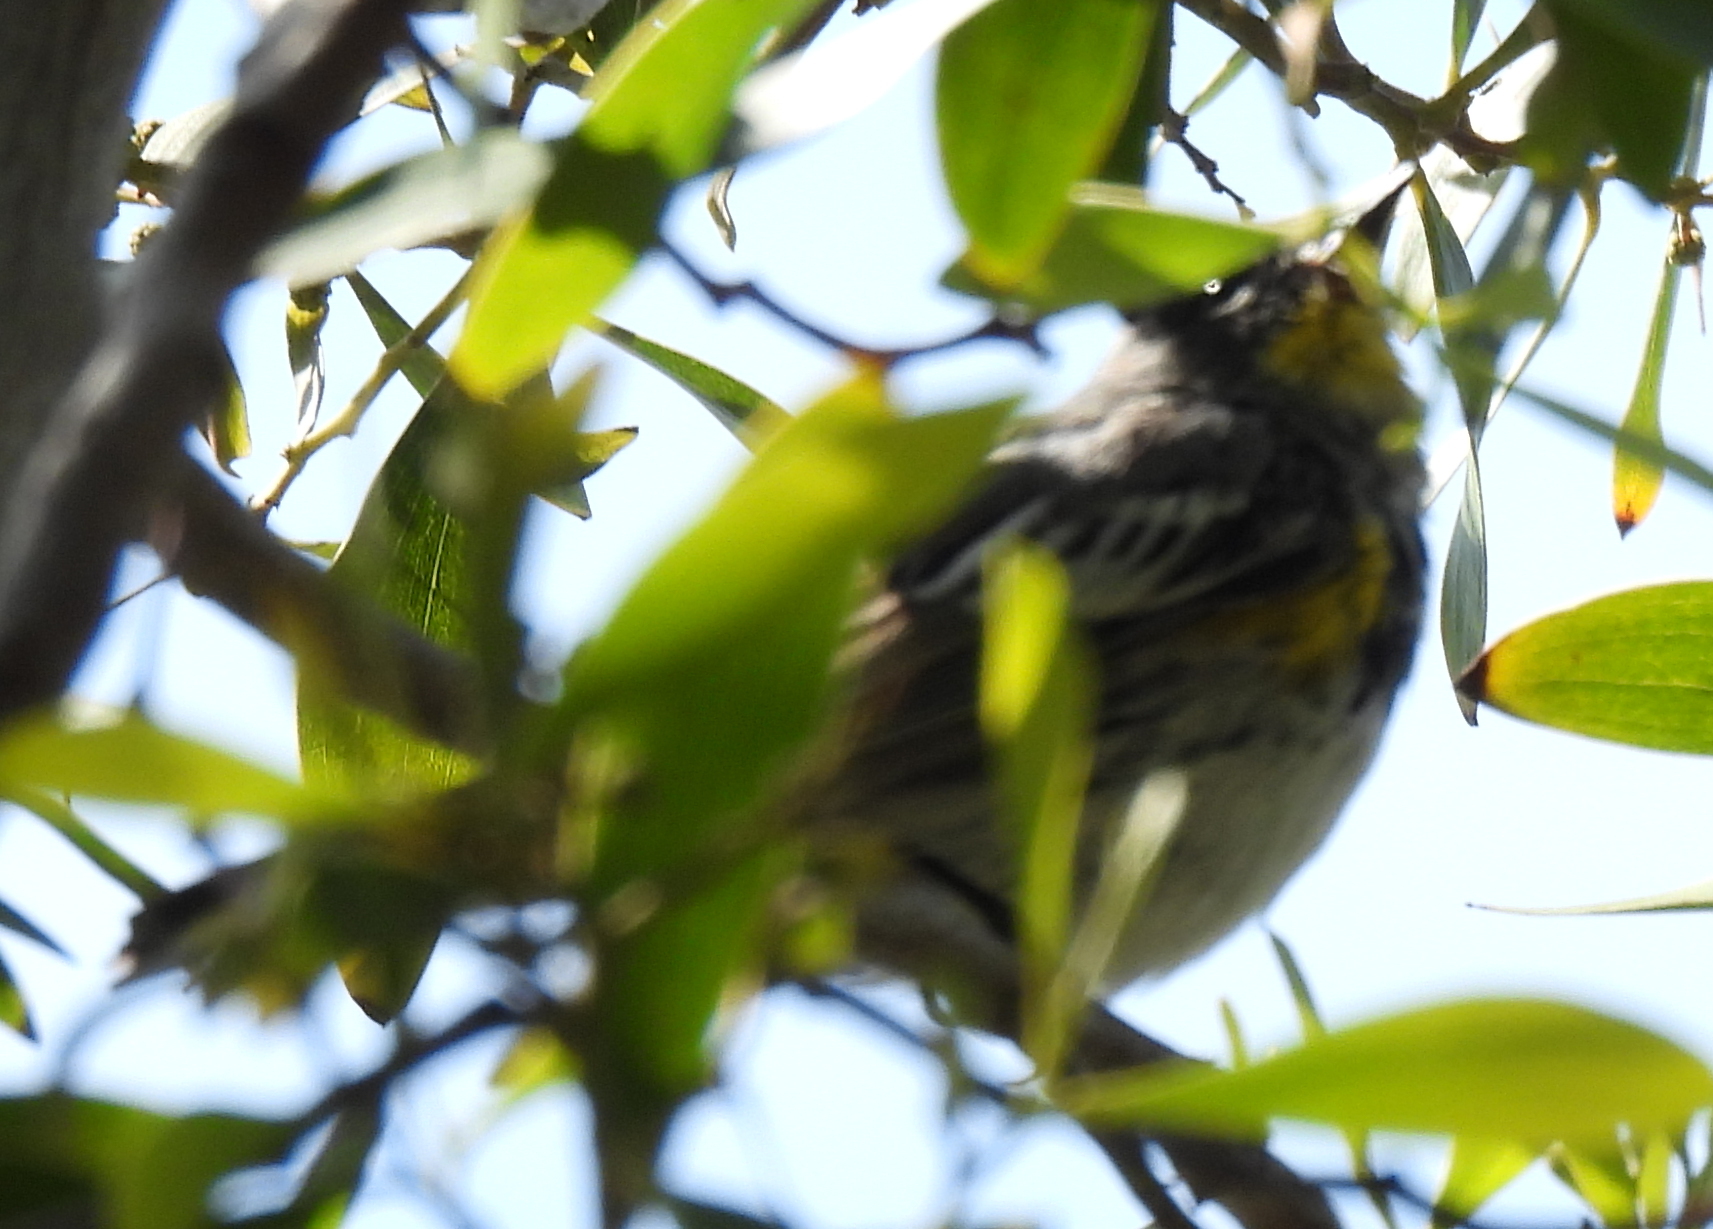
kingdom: Animalia
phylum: Chordata
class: Aves
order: Passeriformes
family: Parulidae
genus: Setophaga
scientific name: Setophaga coronata
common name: Myrtle warbler
